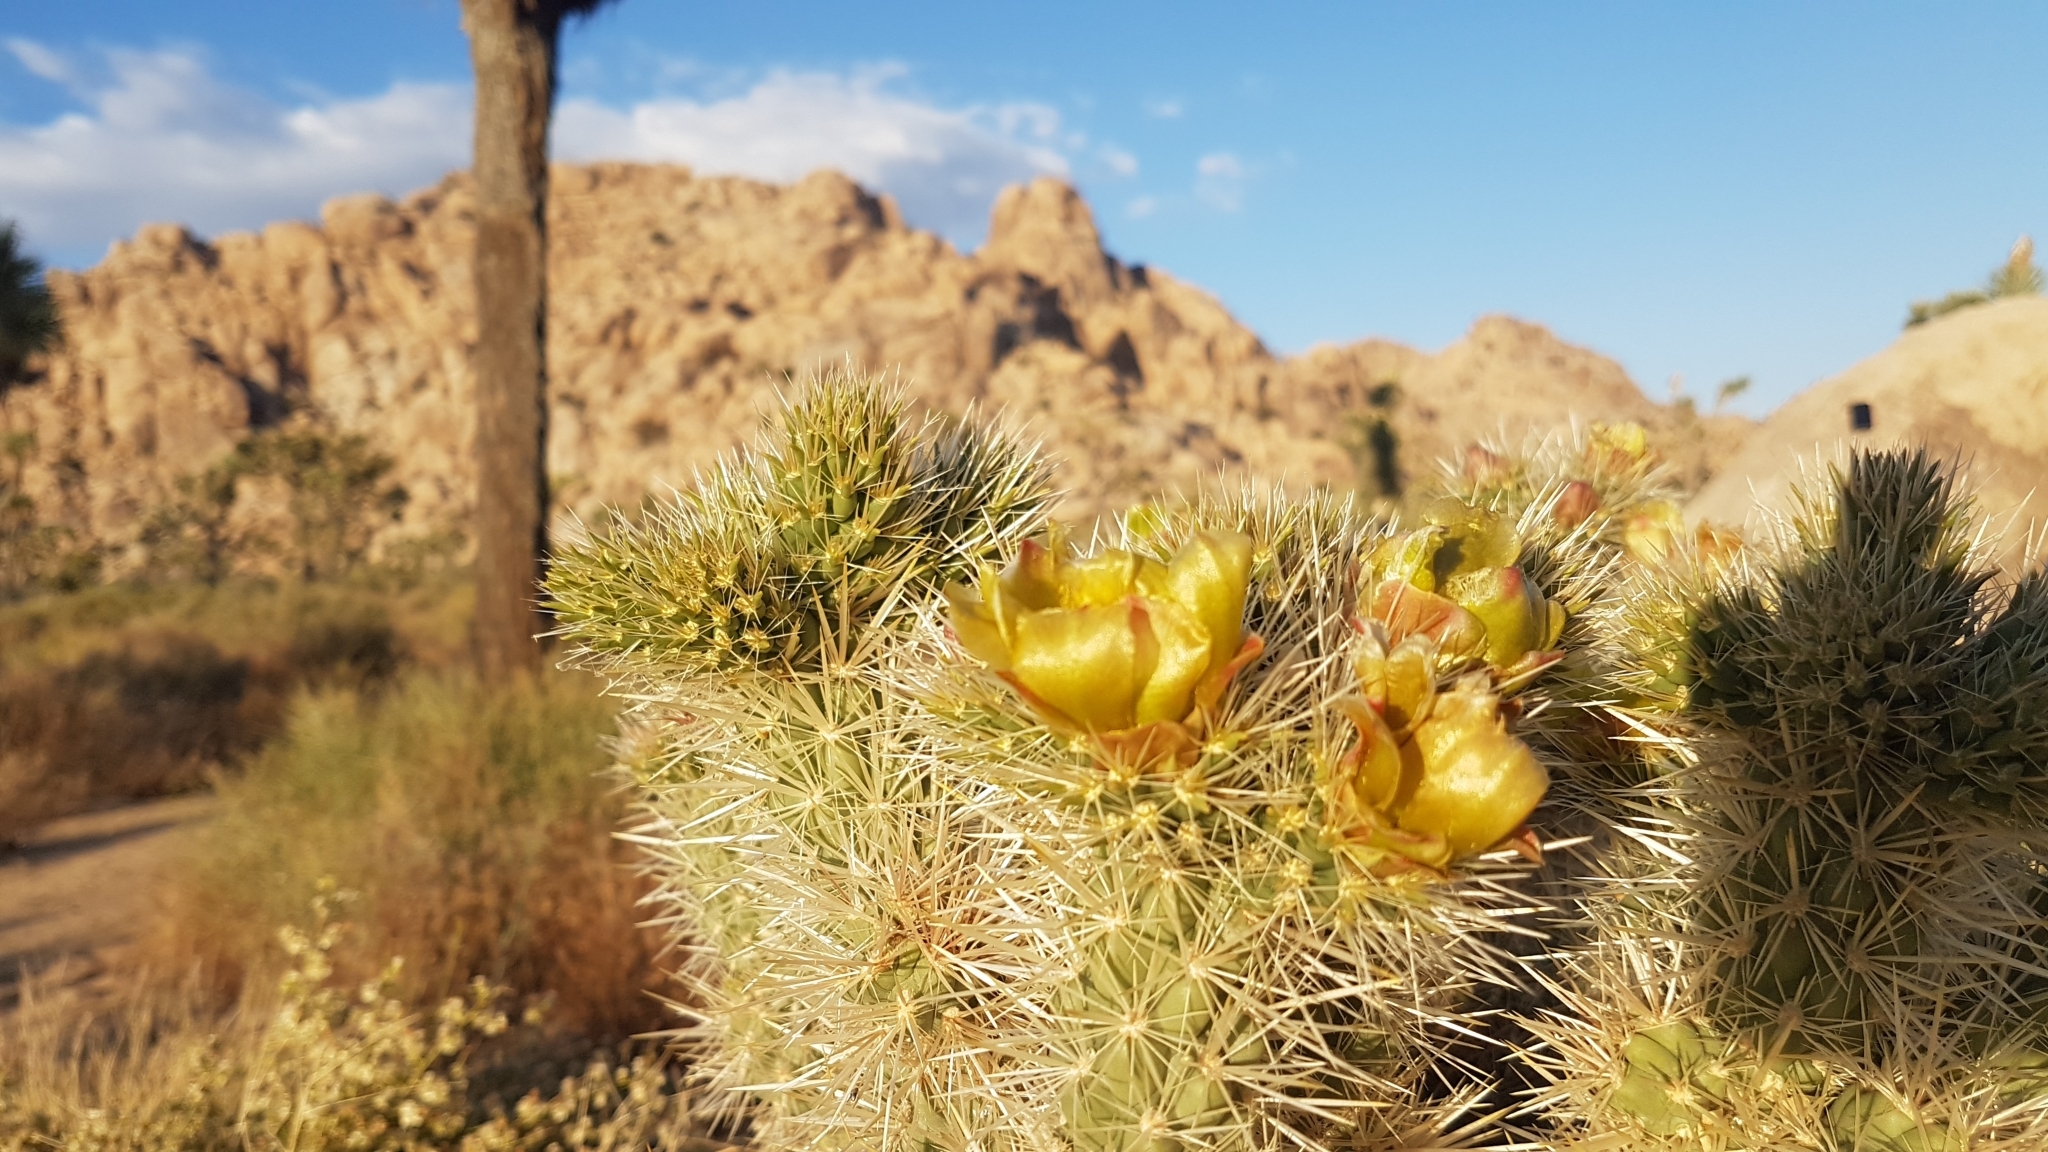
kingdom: Plantae
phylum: Tracheophyta
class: Magnoliopsida
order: Caryophyllales
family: Cactaceae
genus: Cylindropuntia
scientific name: Cylindropuntia echinocarpa
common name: Ground cholla
